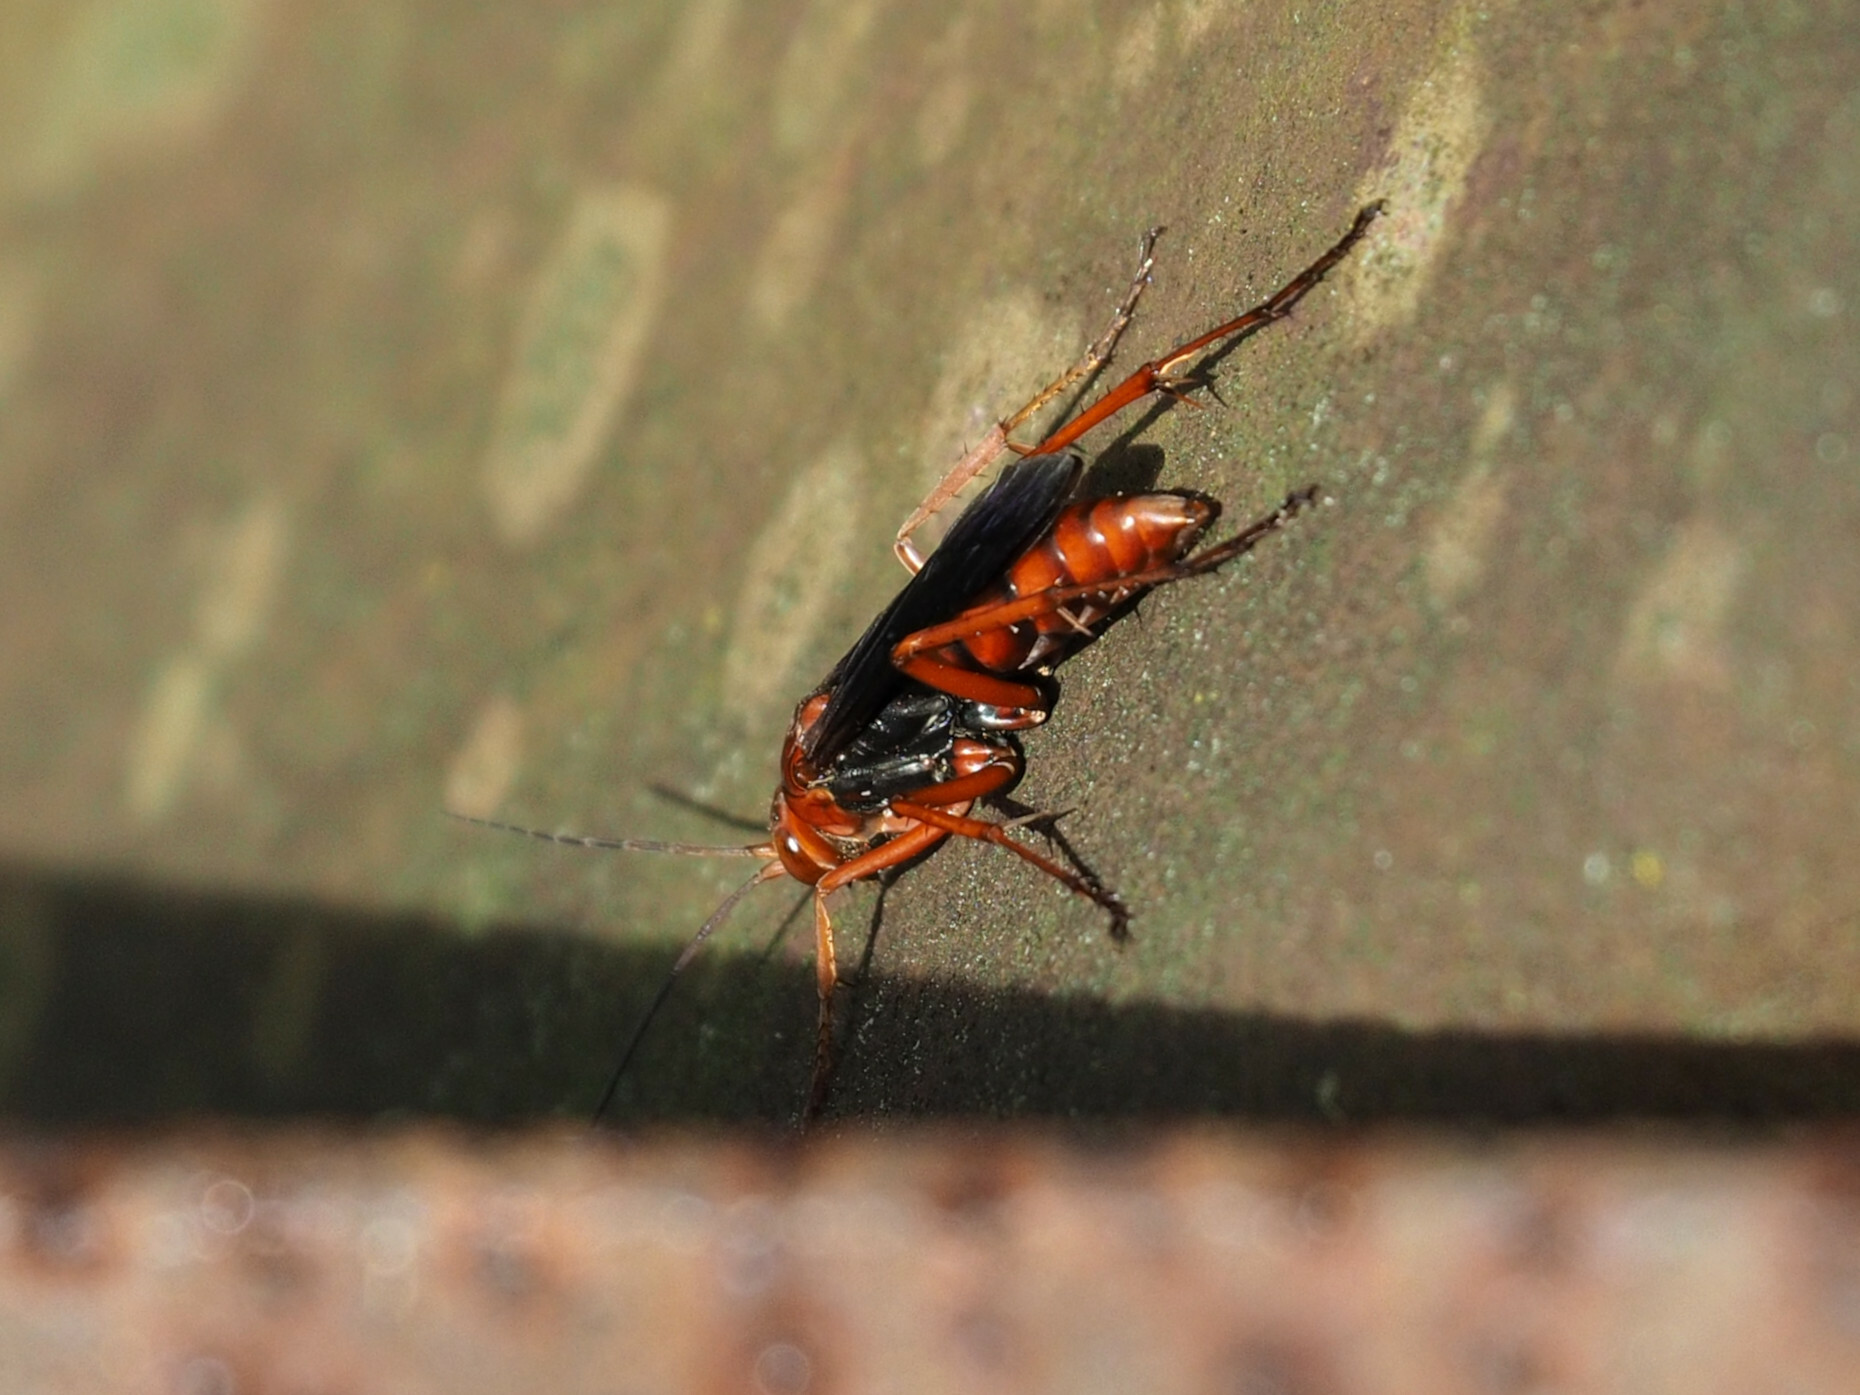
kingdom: Animalia
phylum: Arthropoda
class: Insecta
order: Hymenoptera
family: Pompilidae
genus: Tachypompilus
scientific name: Tachypompilus ferrugineus
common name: Rusty spider wasp
